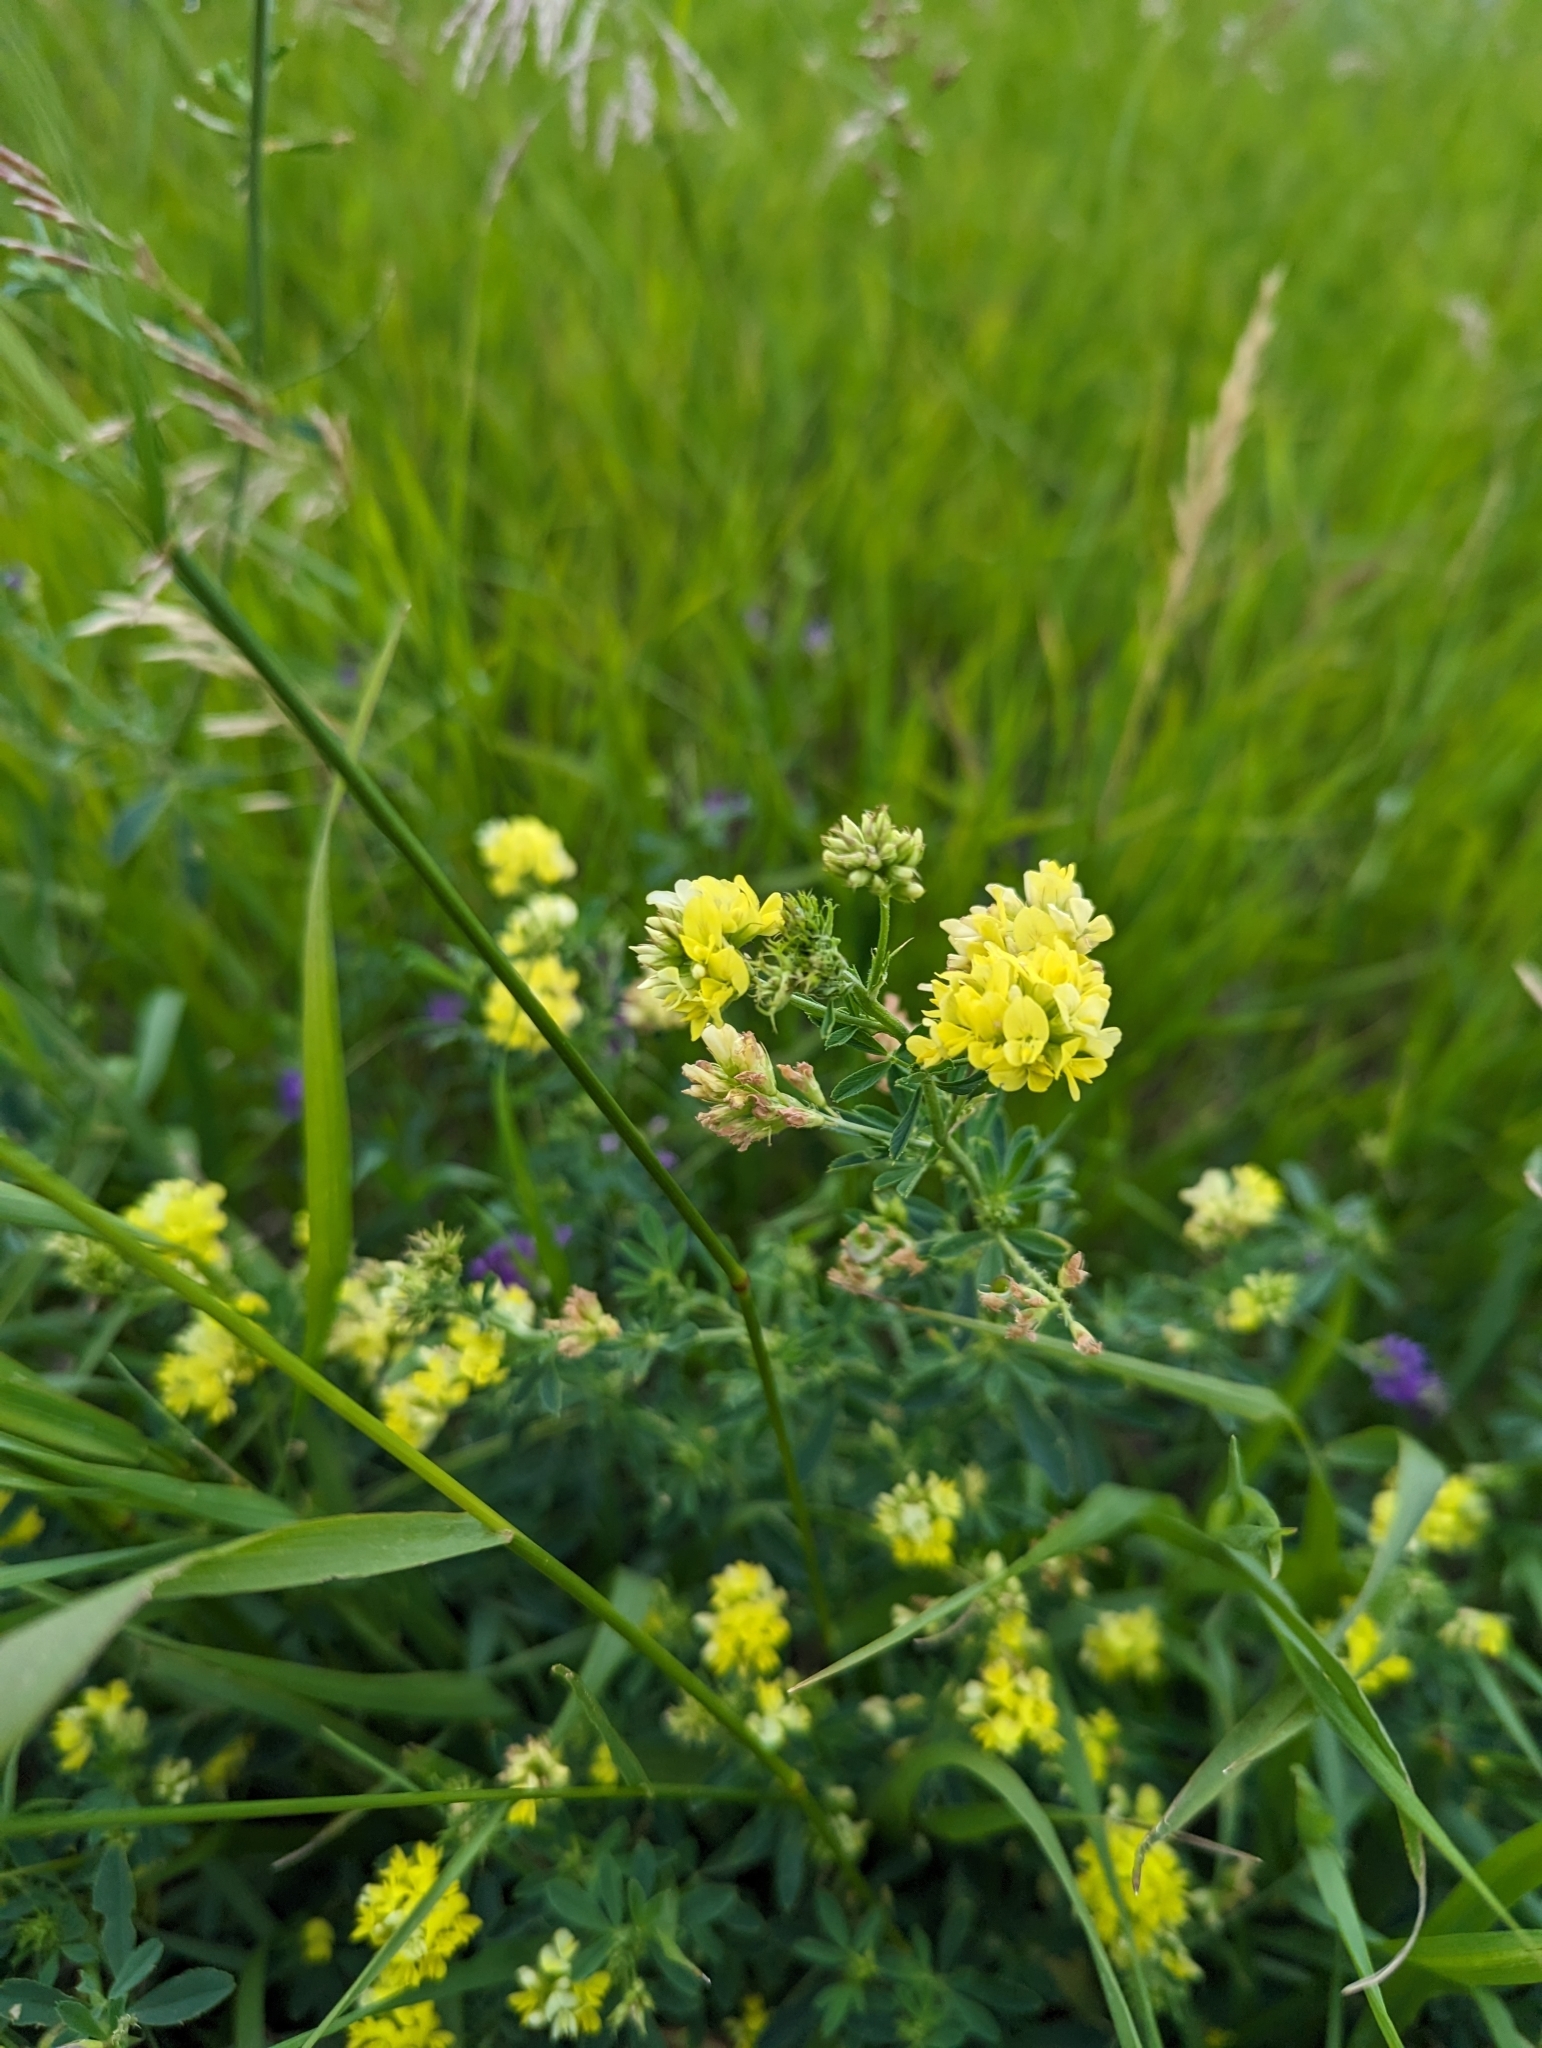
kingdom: Plantae
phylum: Tracheophyta
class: Magnoliopsida
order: Fabales
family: Fabaceae
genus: Medicago
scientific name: Medicago falcata
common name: Sickle medick
